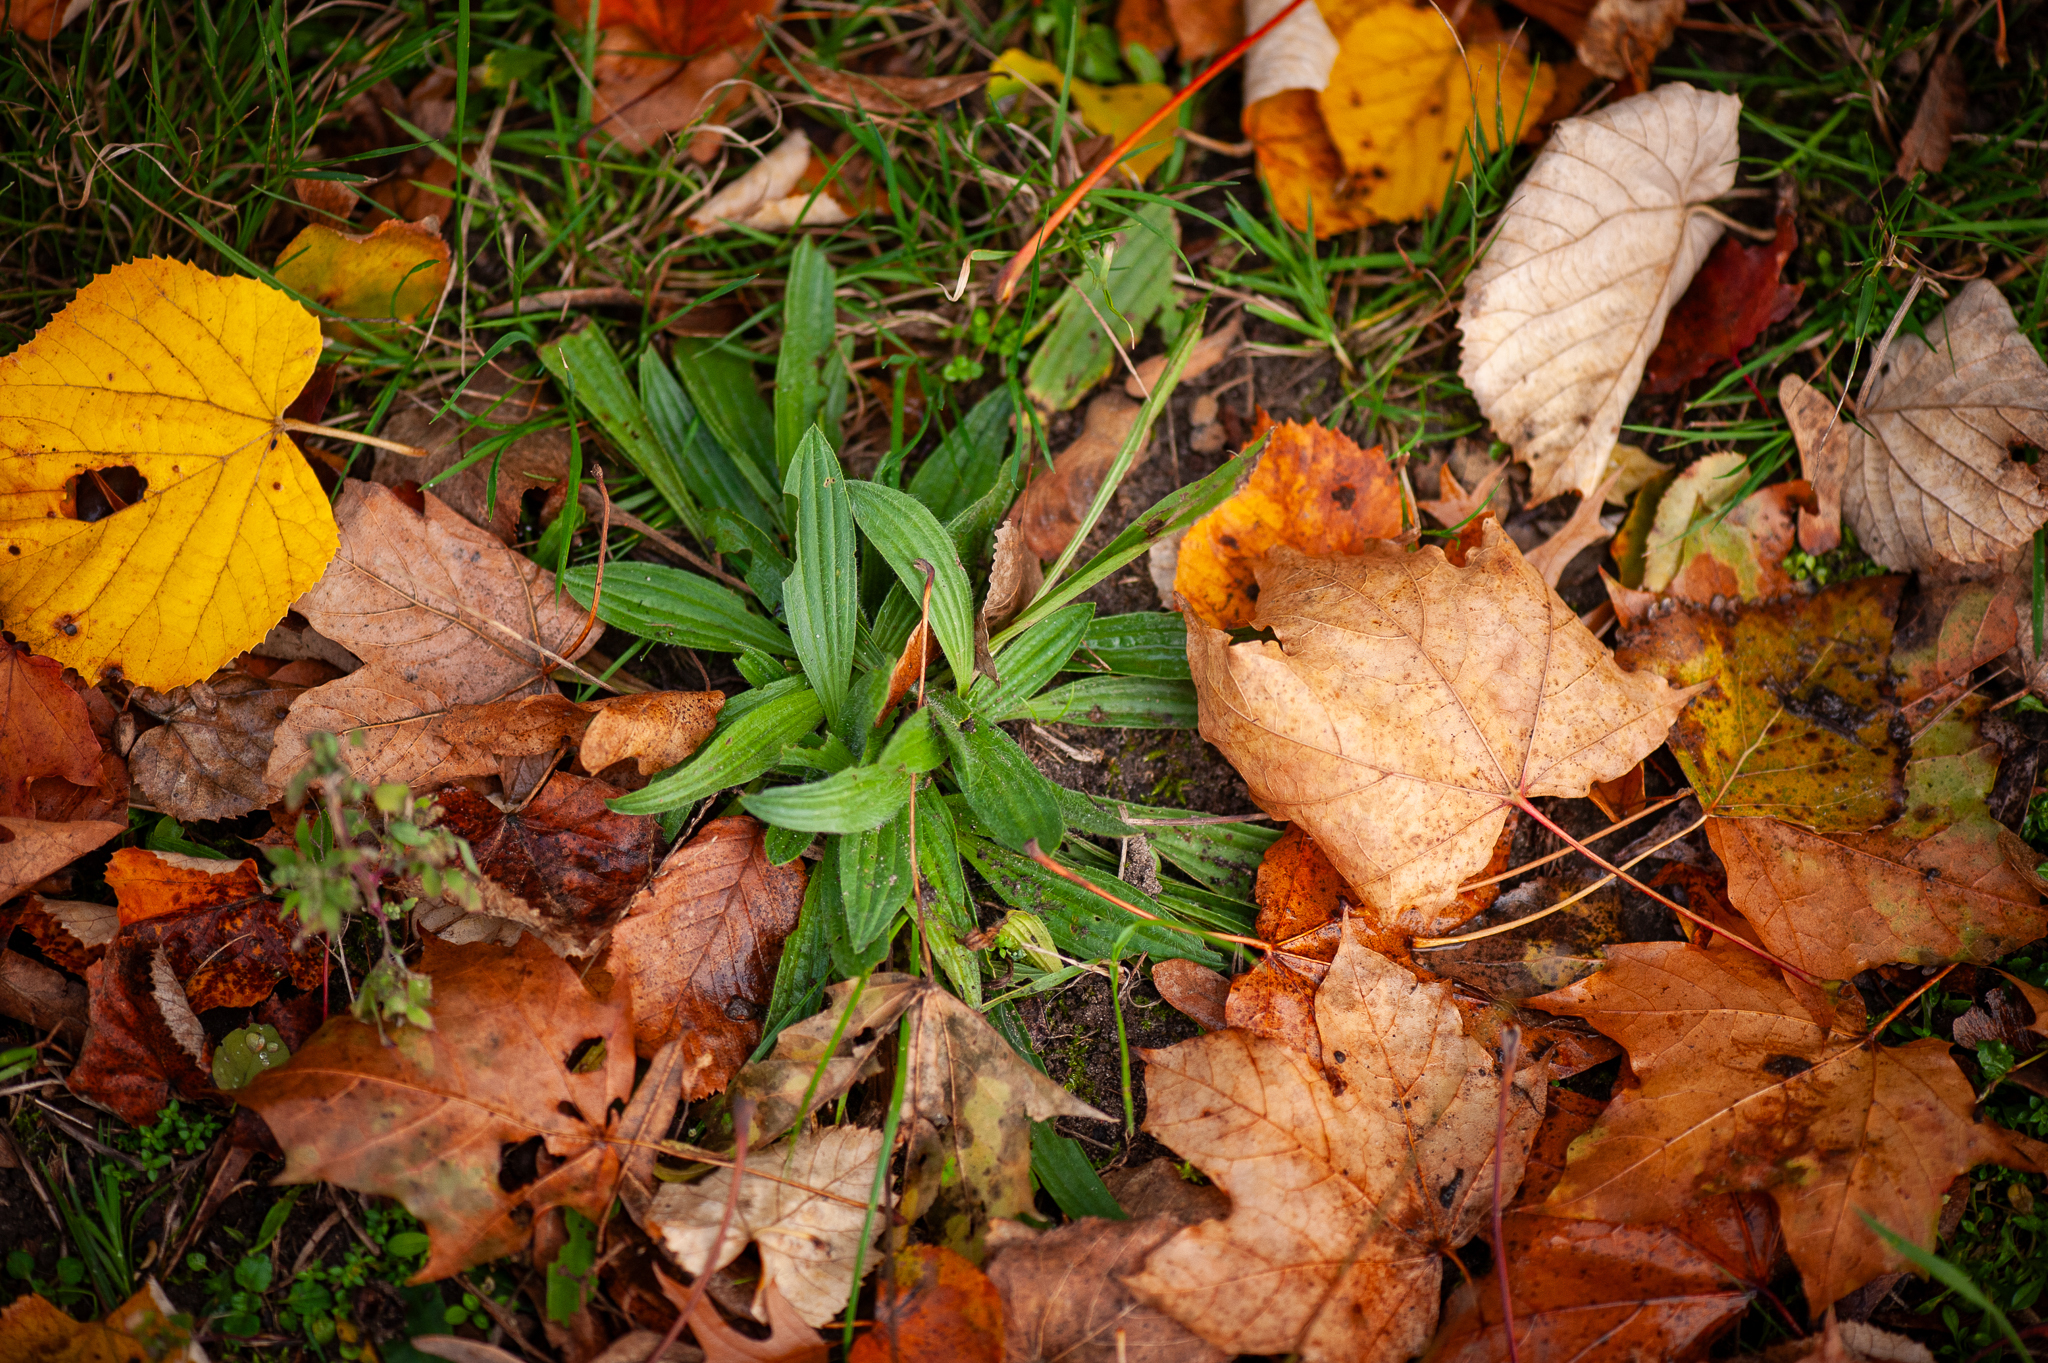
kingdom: Plantae
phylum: Tracheophyta
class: Magnoliopsida
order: Lamiales
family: Plantaginaceae
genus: Plantago
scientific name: Plantago lanceolata
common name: Ribwort plantain
